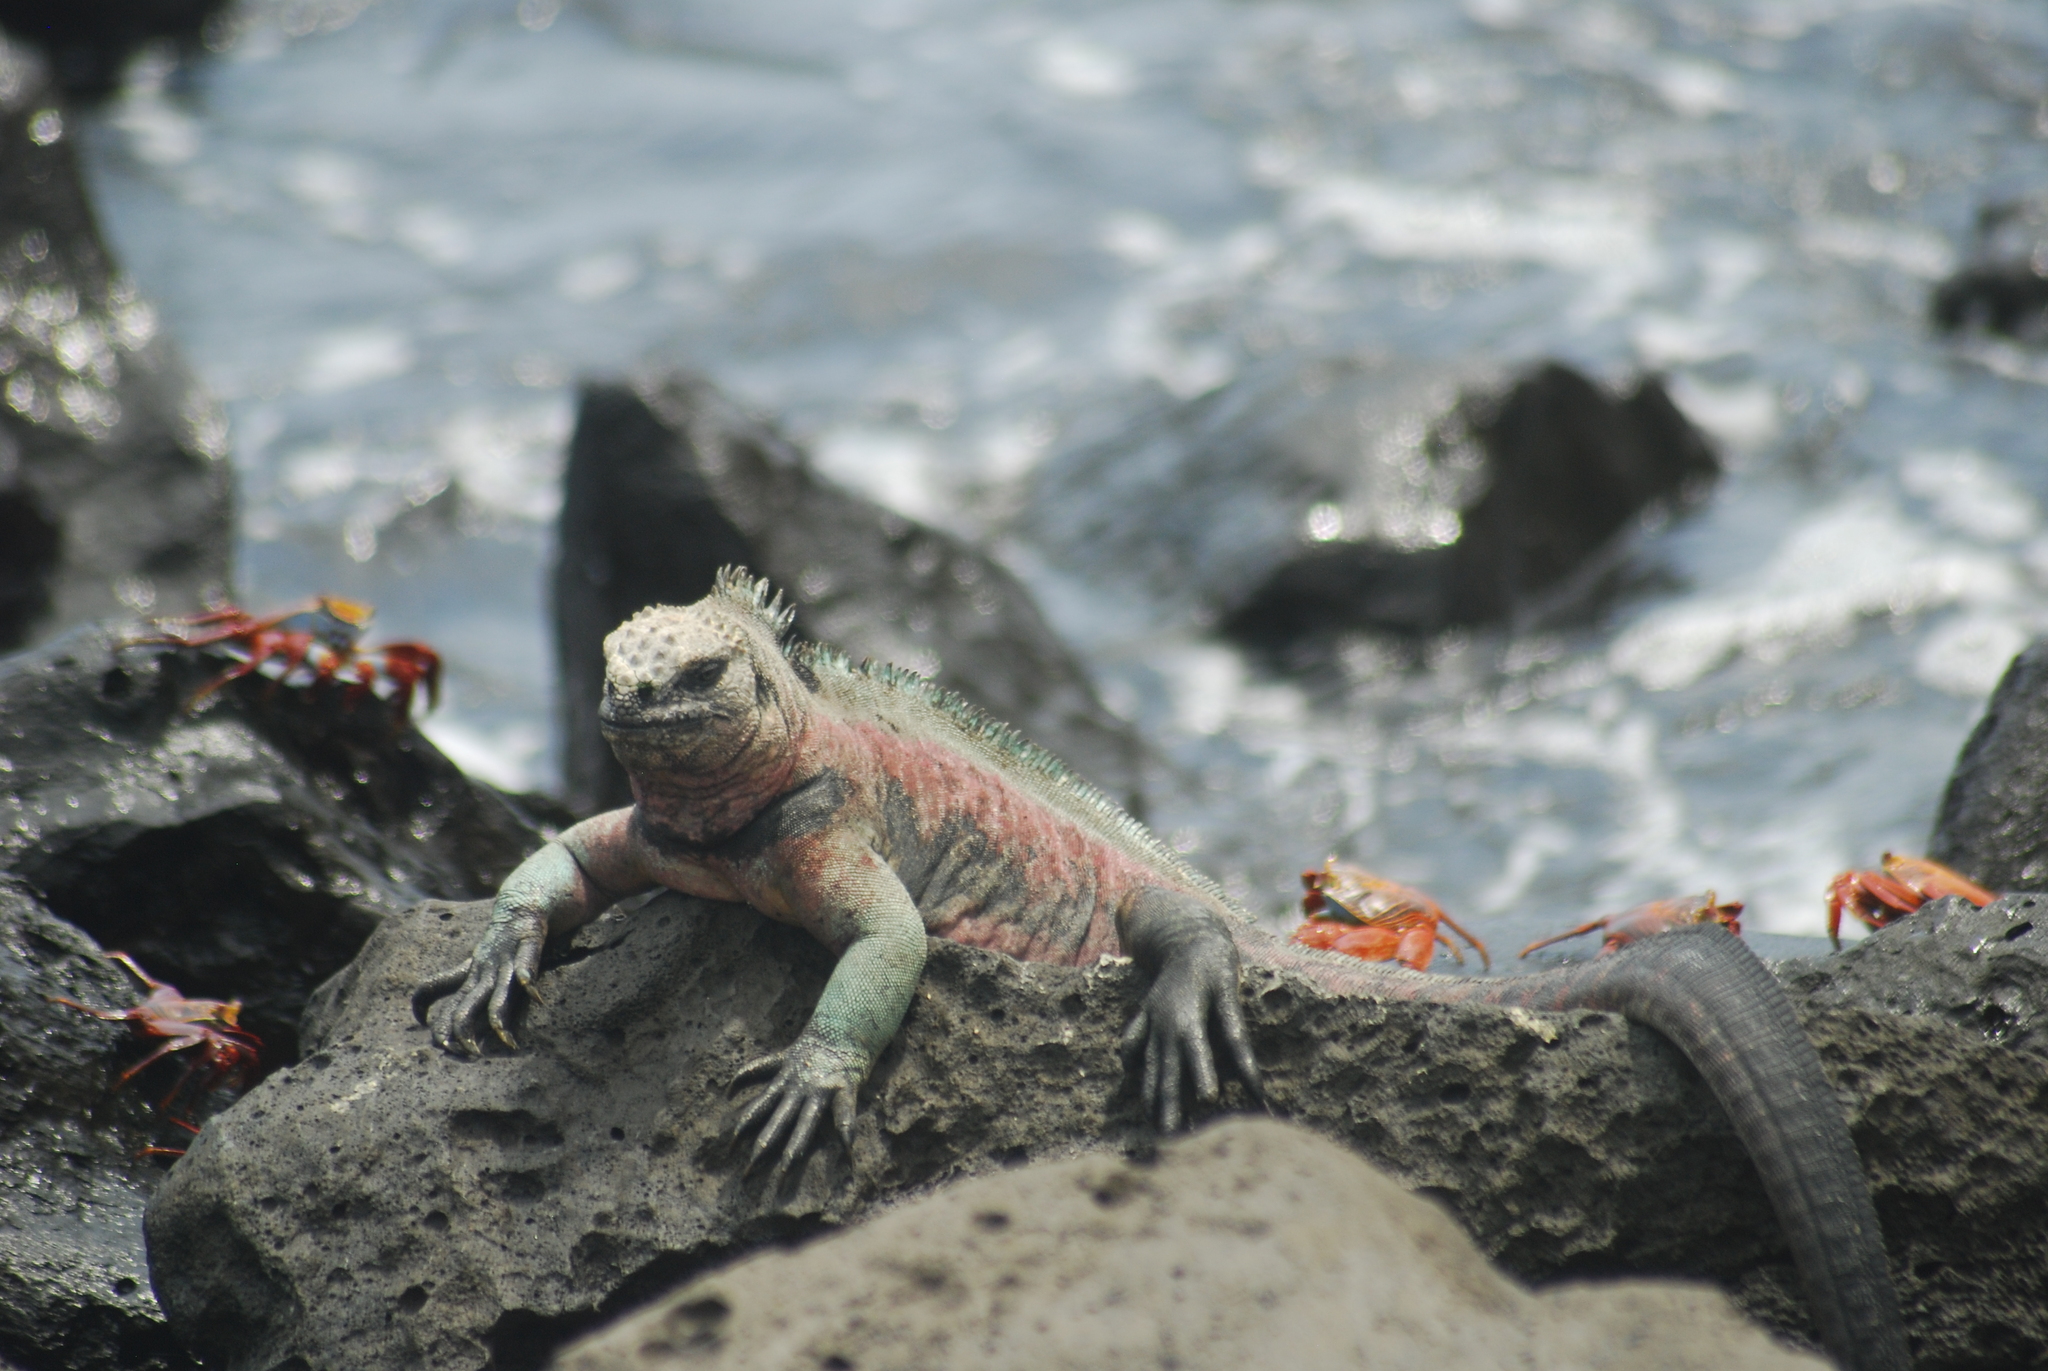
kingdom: Animalia
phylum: Chordata
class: Squamata
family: Iguanidae
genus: Amblyrhynchus
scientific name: Amblyrhynchus cristatus
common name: Marine iguana
